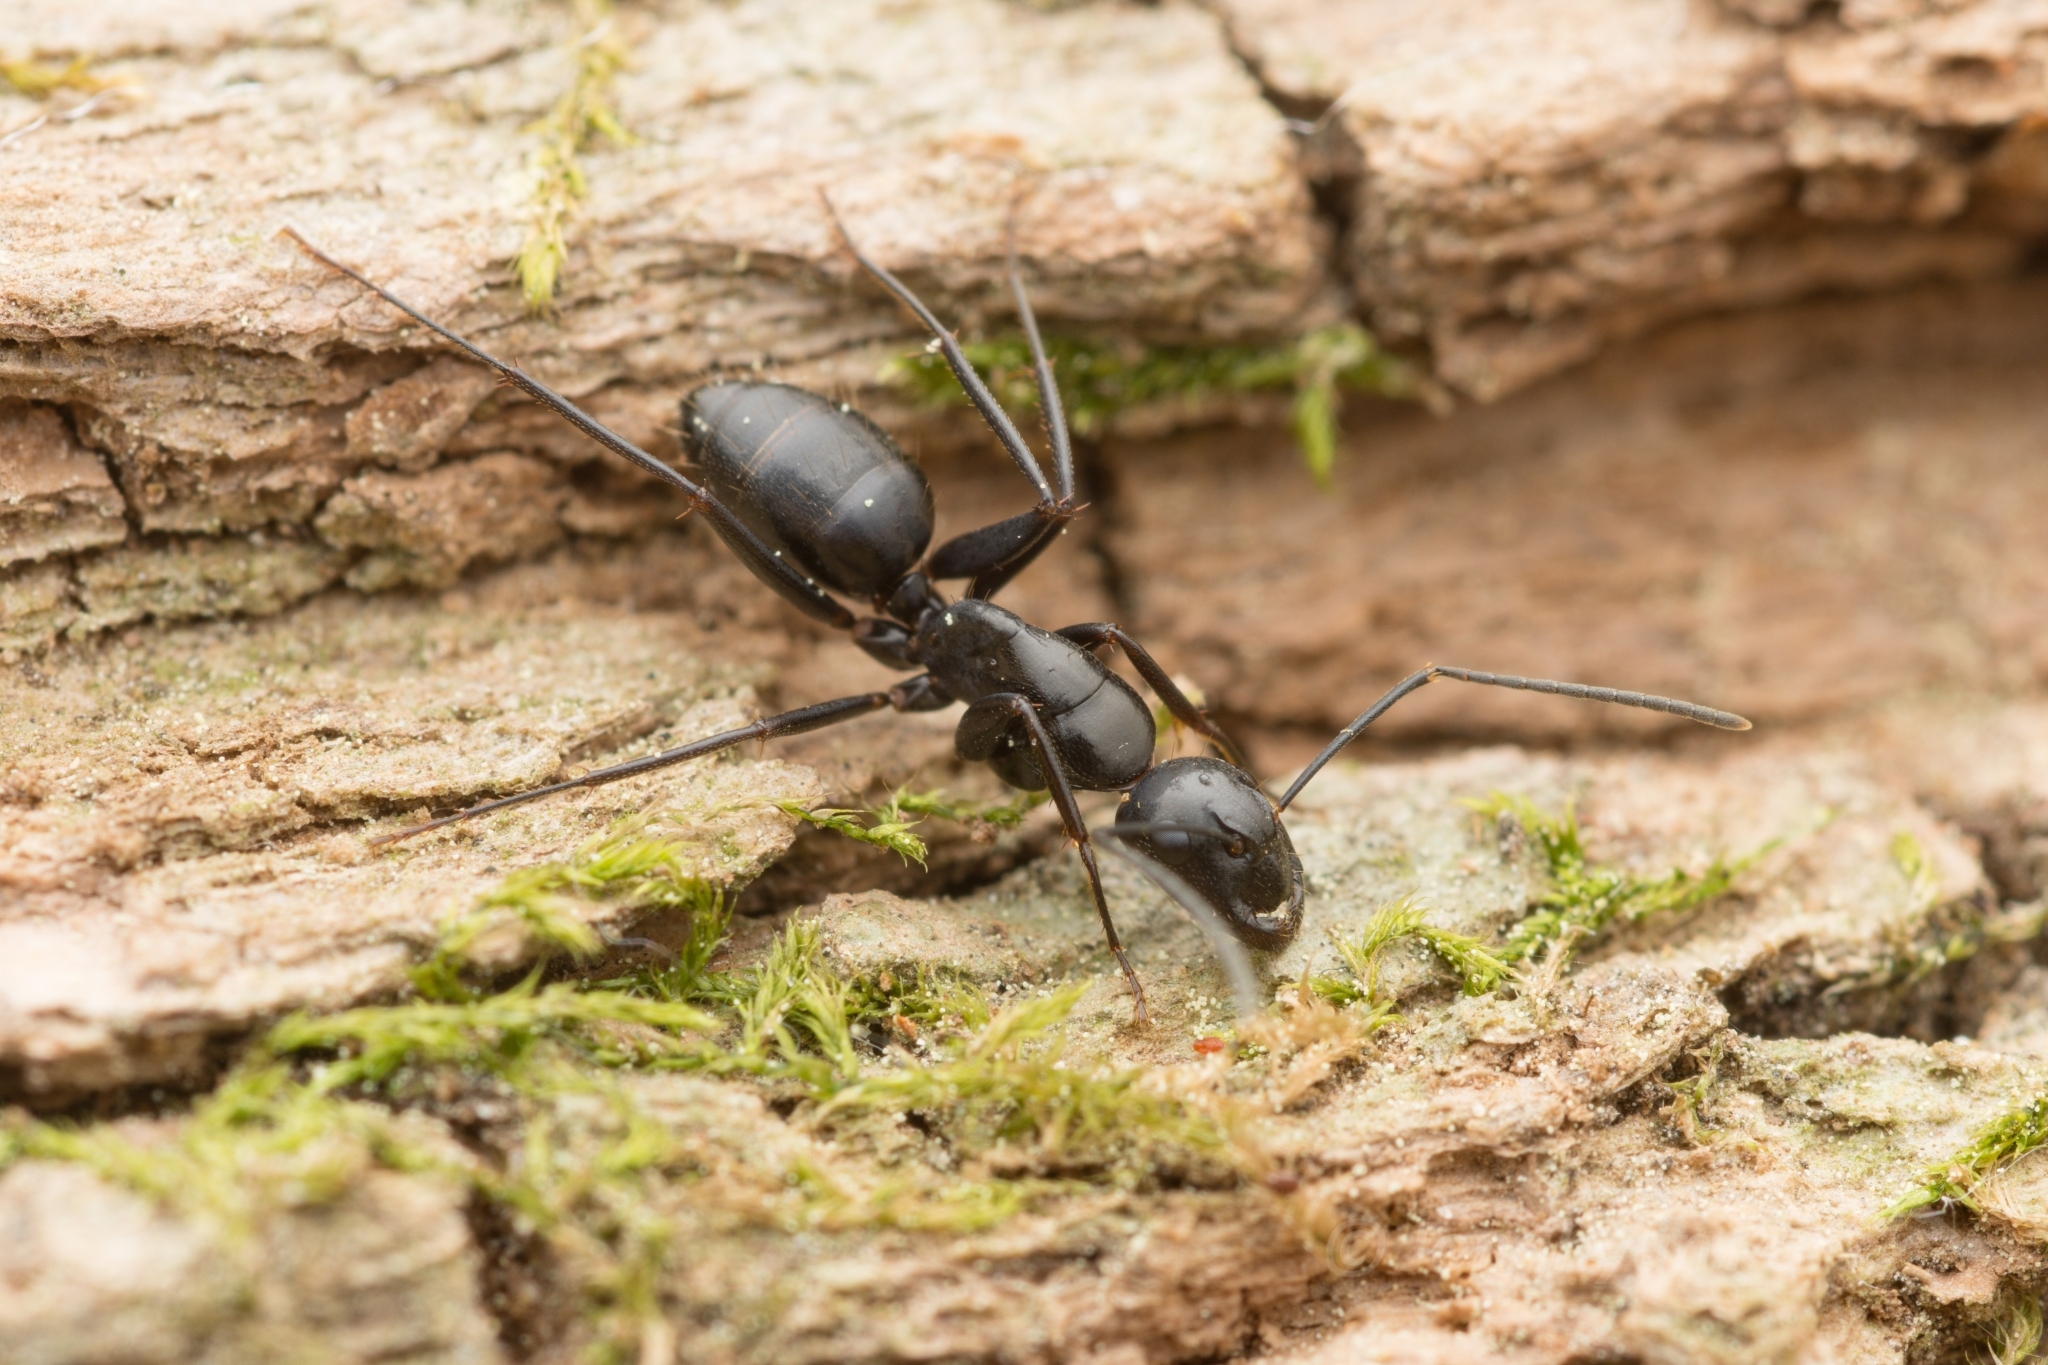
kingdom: Animalia
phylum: Arthropoda
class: Insecta
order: Hymenoptera
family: Formicidae
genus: Camponotus
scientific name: Camponotus concavus
